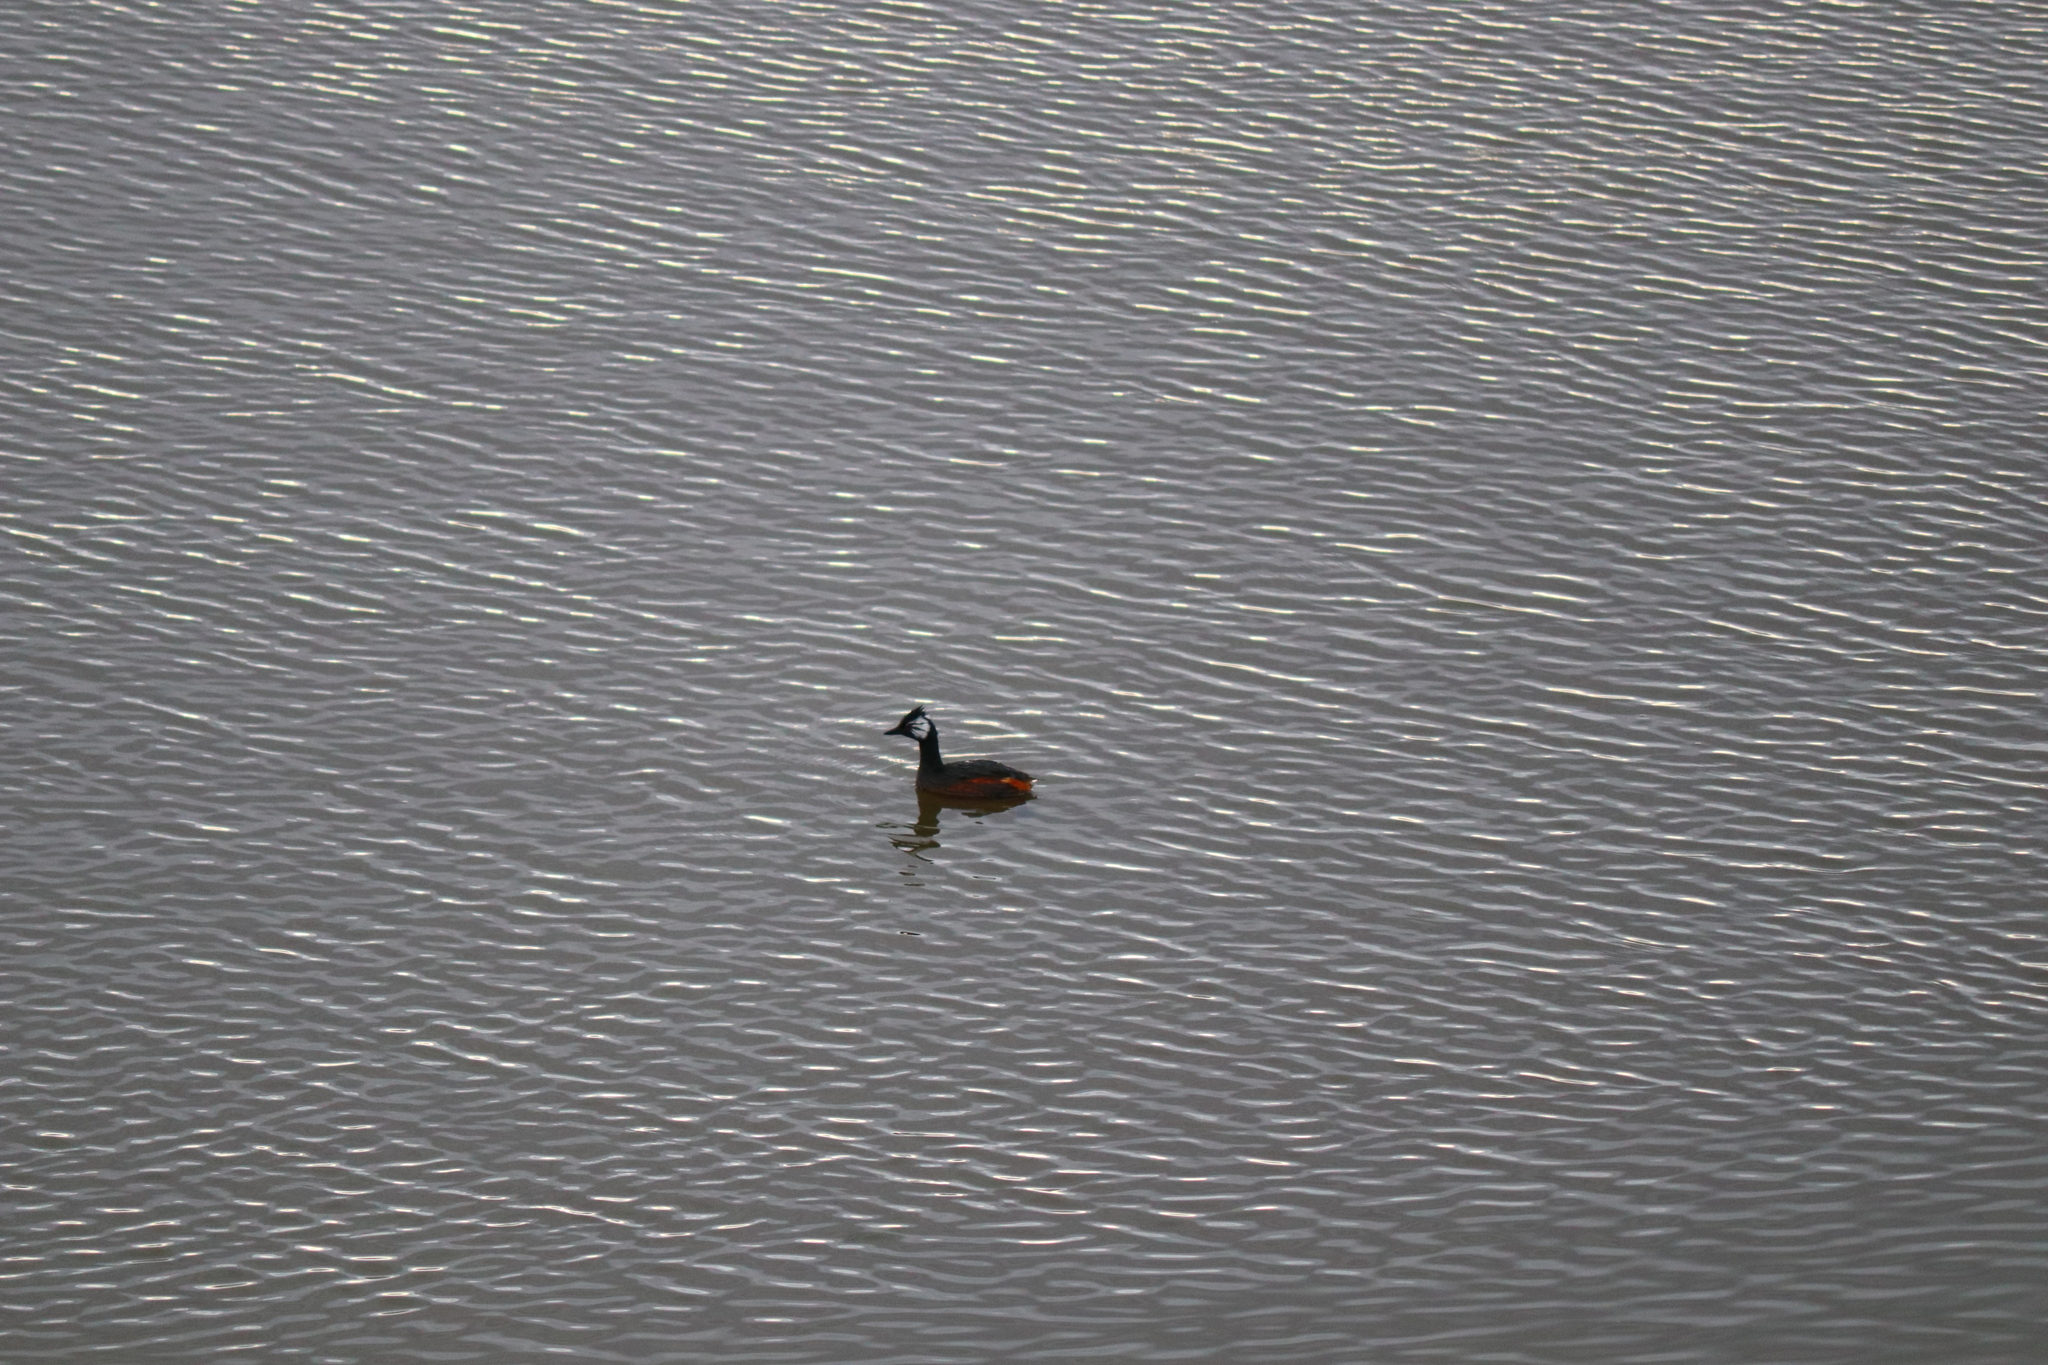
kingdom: Animalia
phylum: Chordata
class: Aves
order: Podicipediformes
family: Podicipedidae
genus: Rollandia
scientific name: Rollandia rolland
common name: White-tufted grebe
